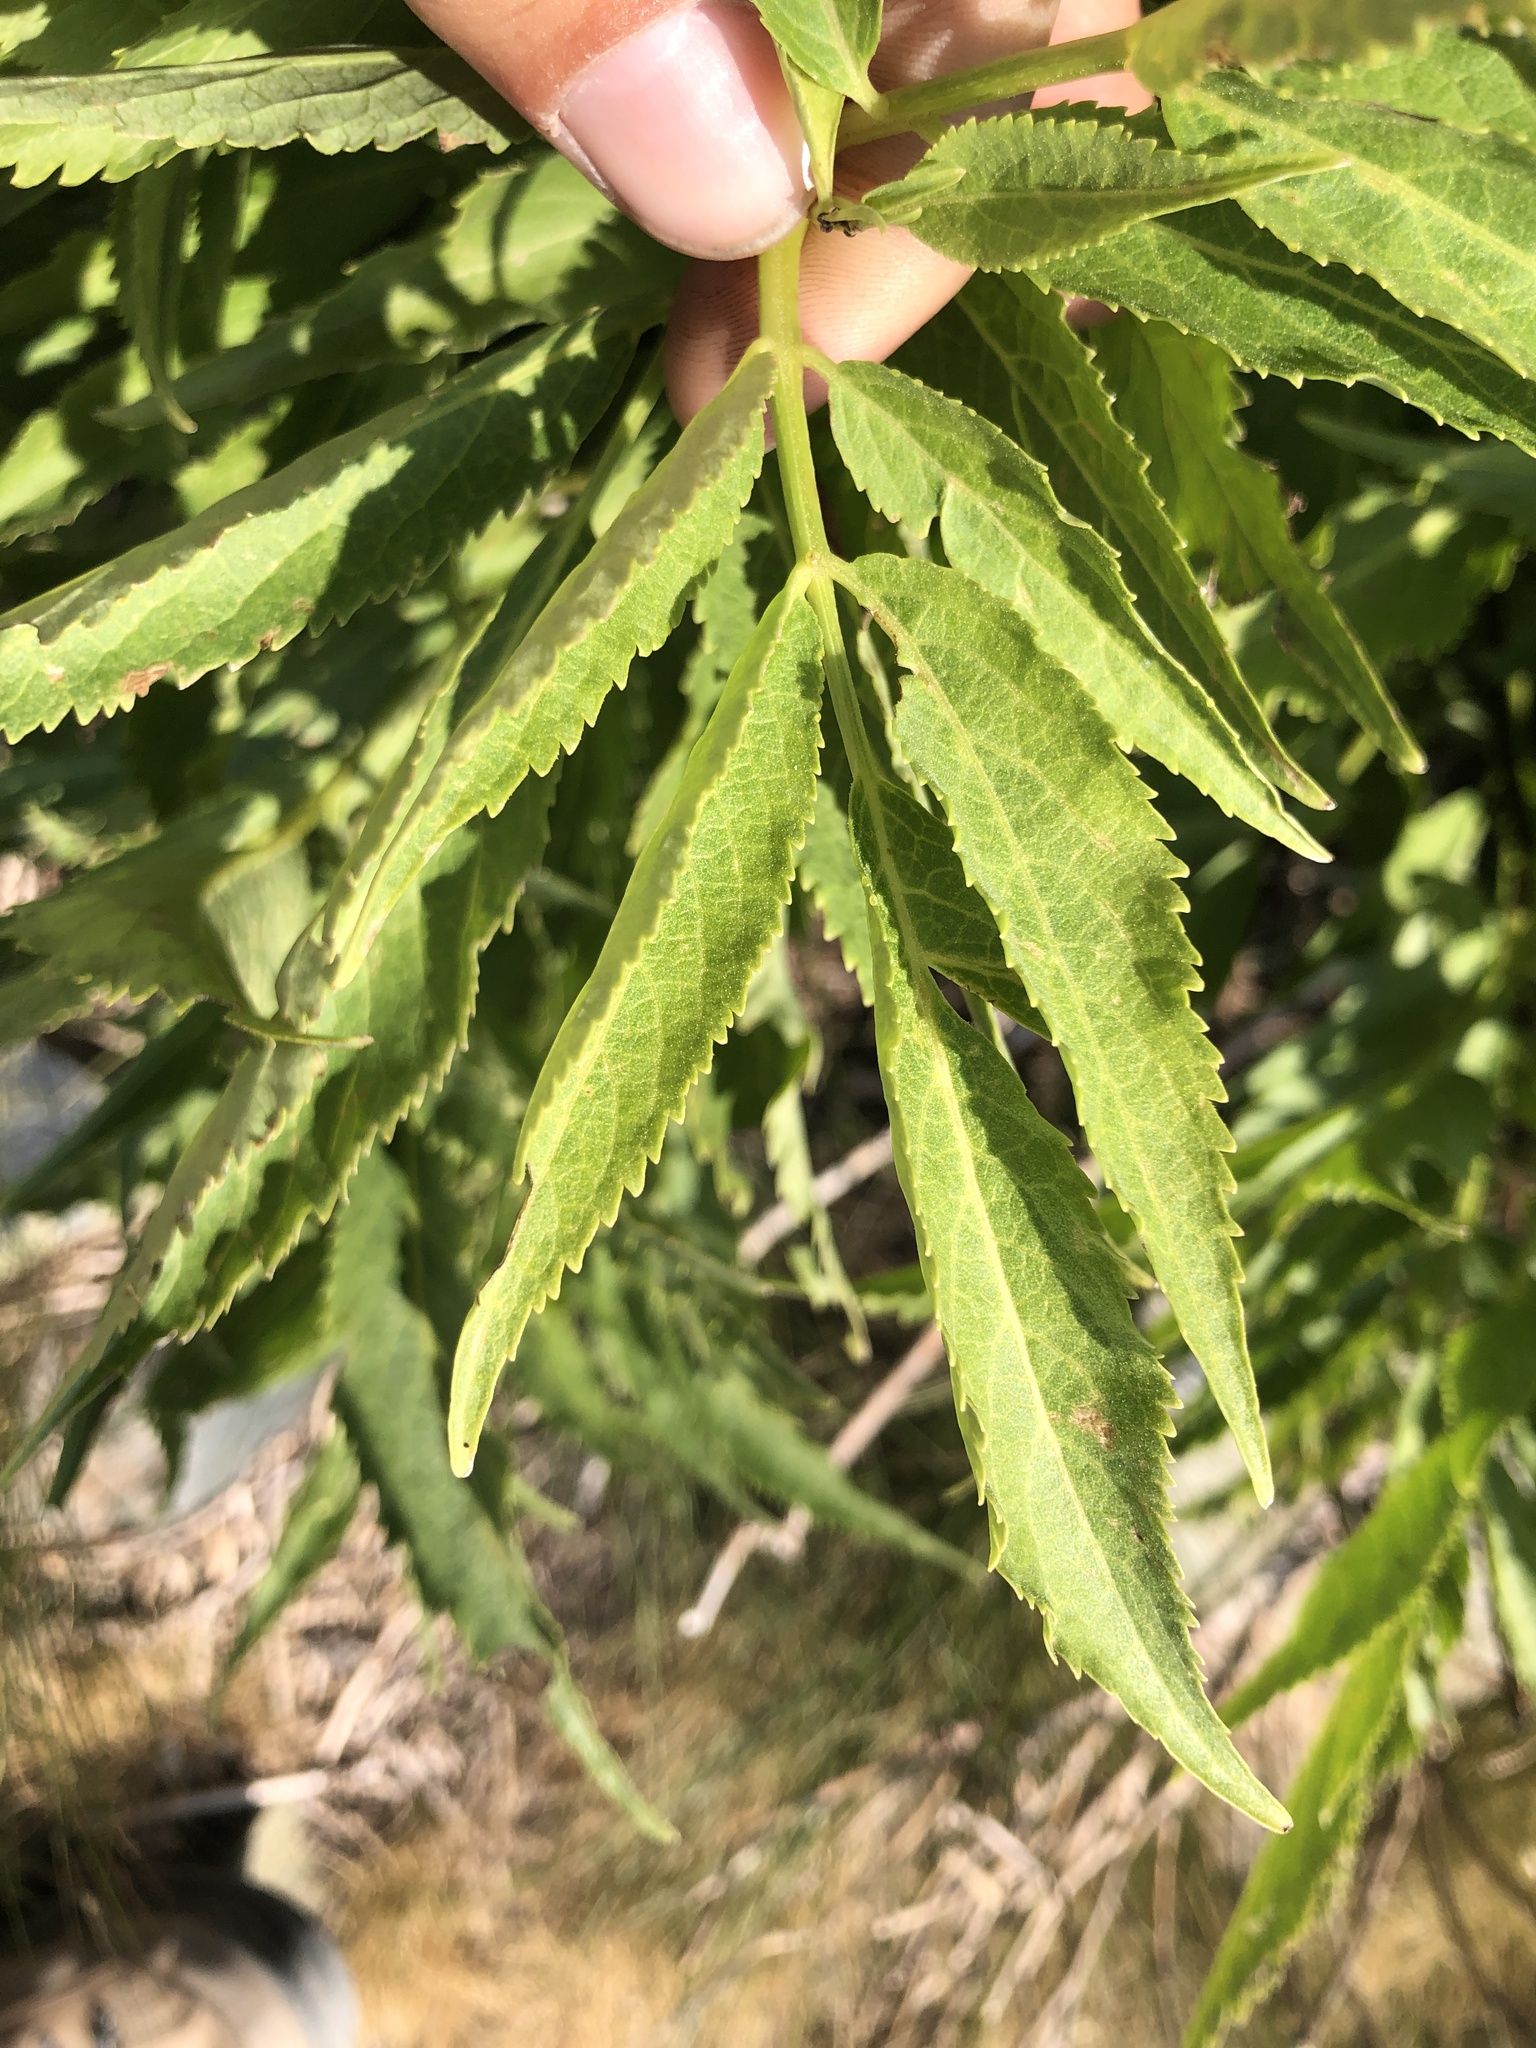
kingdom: Plantae
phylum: Tracheophyta
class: Magnoliopsida
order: Dipsacales
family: Viburnaceae
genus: Sambucus
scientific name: Sambucus racemosa
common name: Red-berried elder
